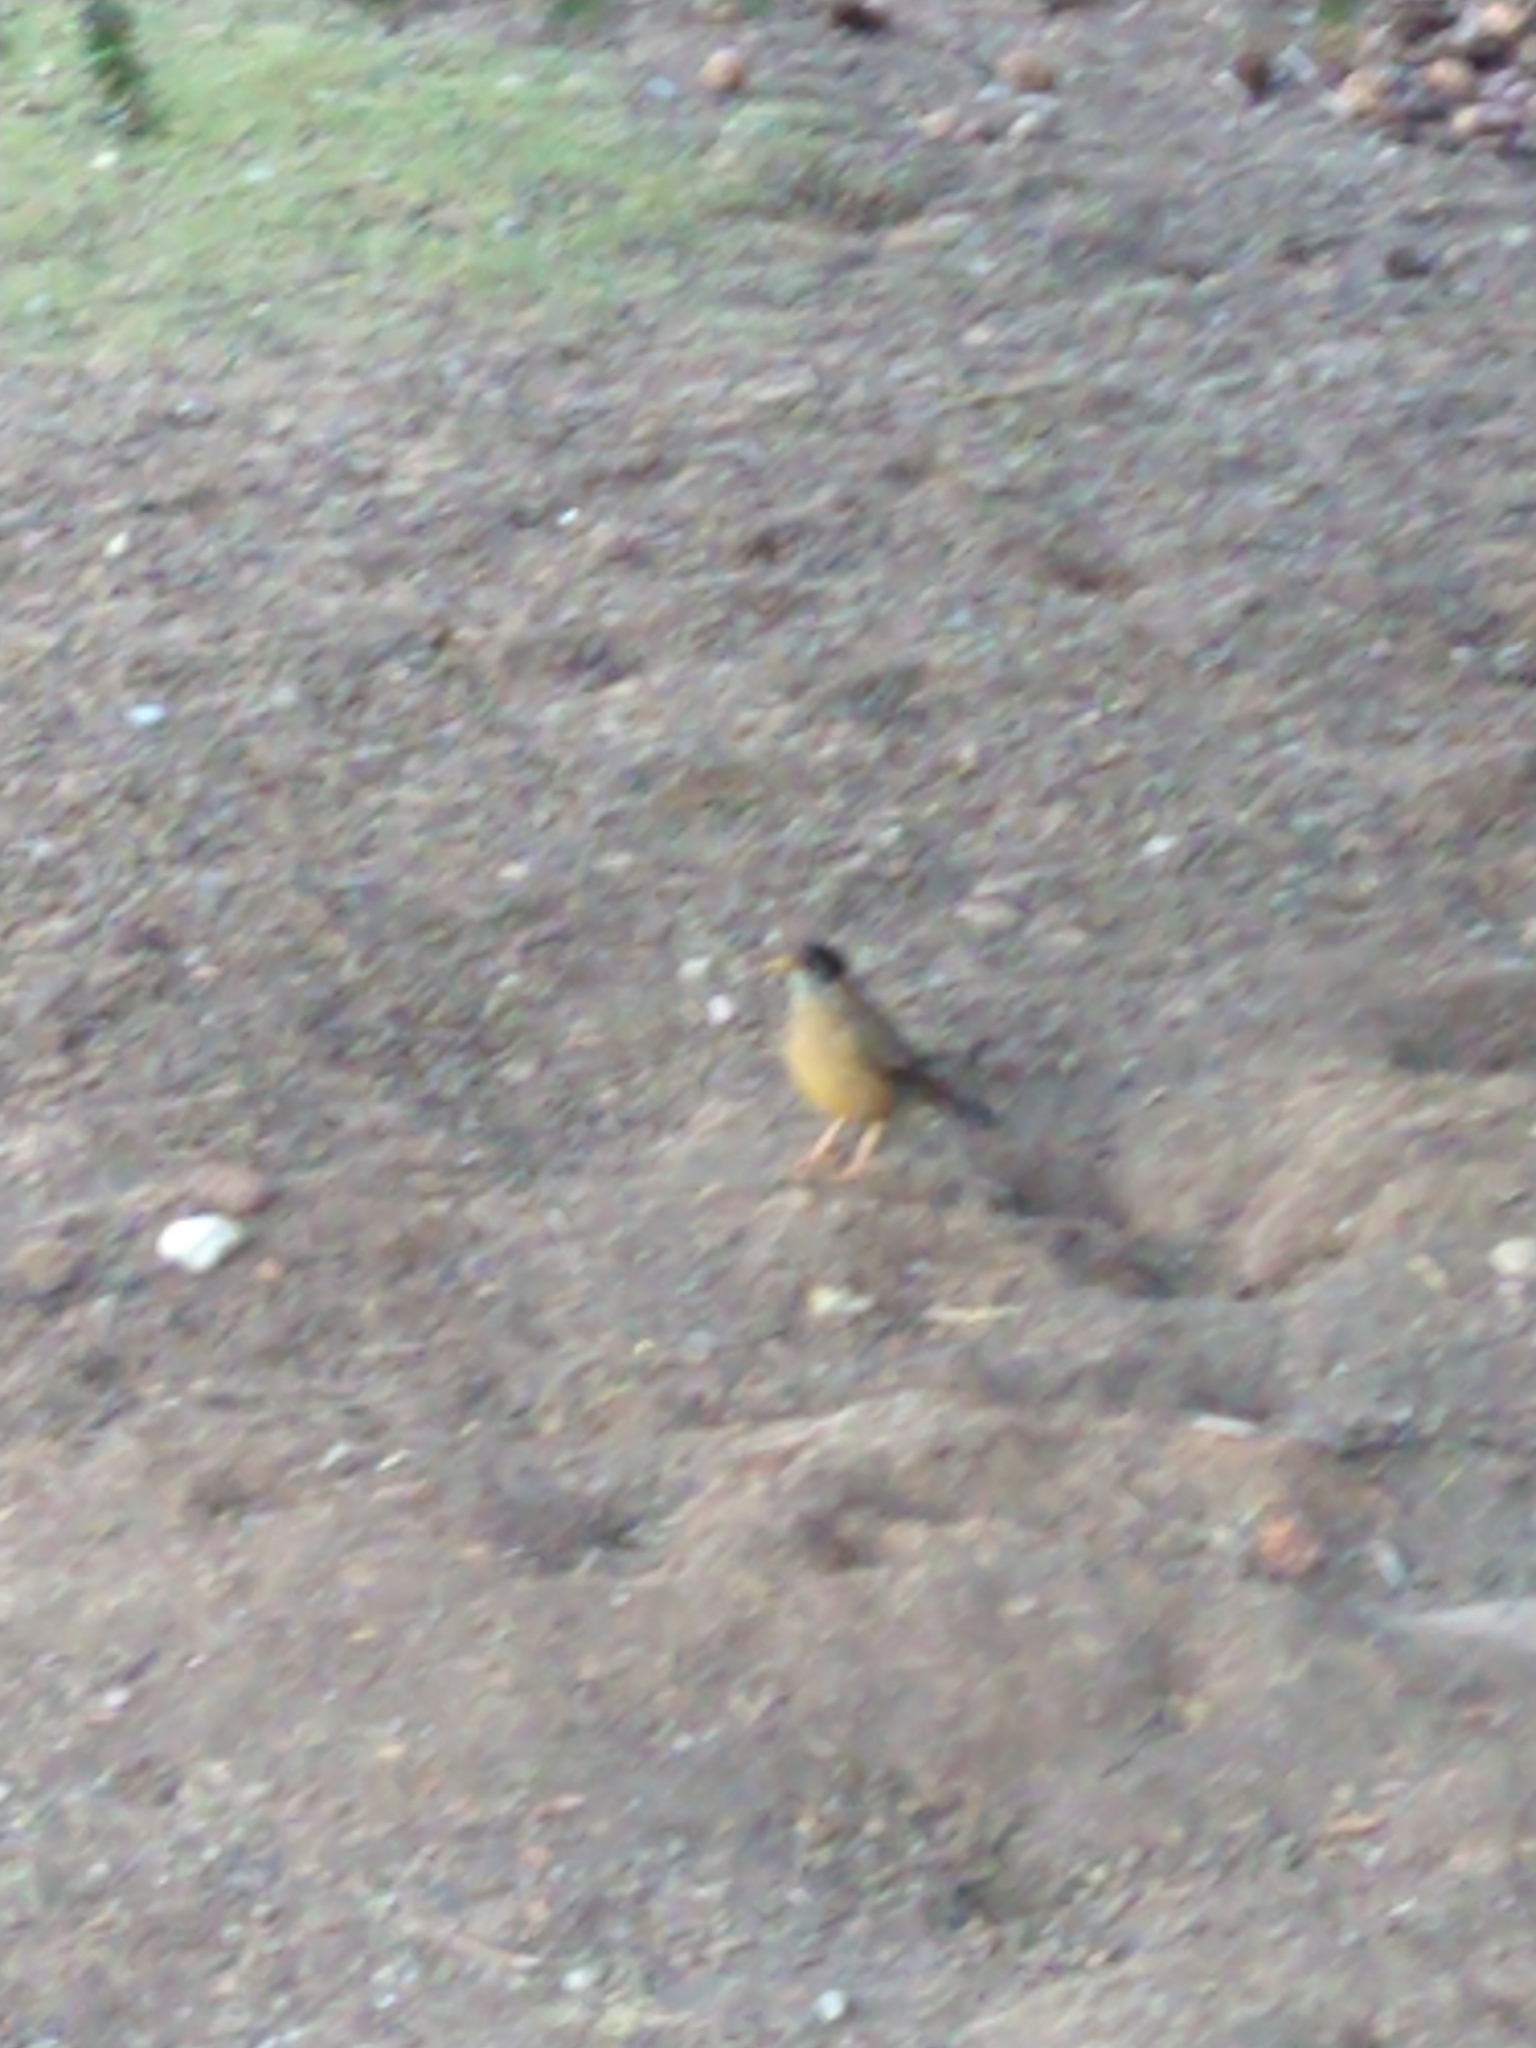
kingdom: Animalia
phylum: Chordata
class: Aves
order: Passeriformes
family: Turdidae
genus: Turdus
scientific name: Turdus falcklandii
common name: Austral thrush
